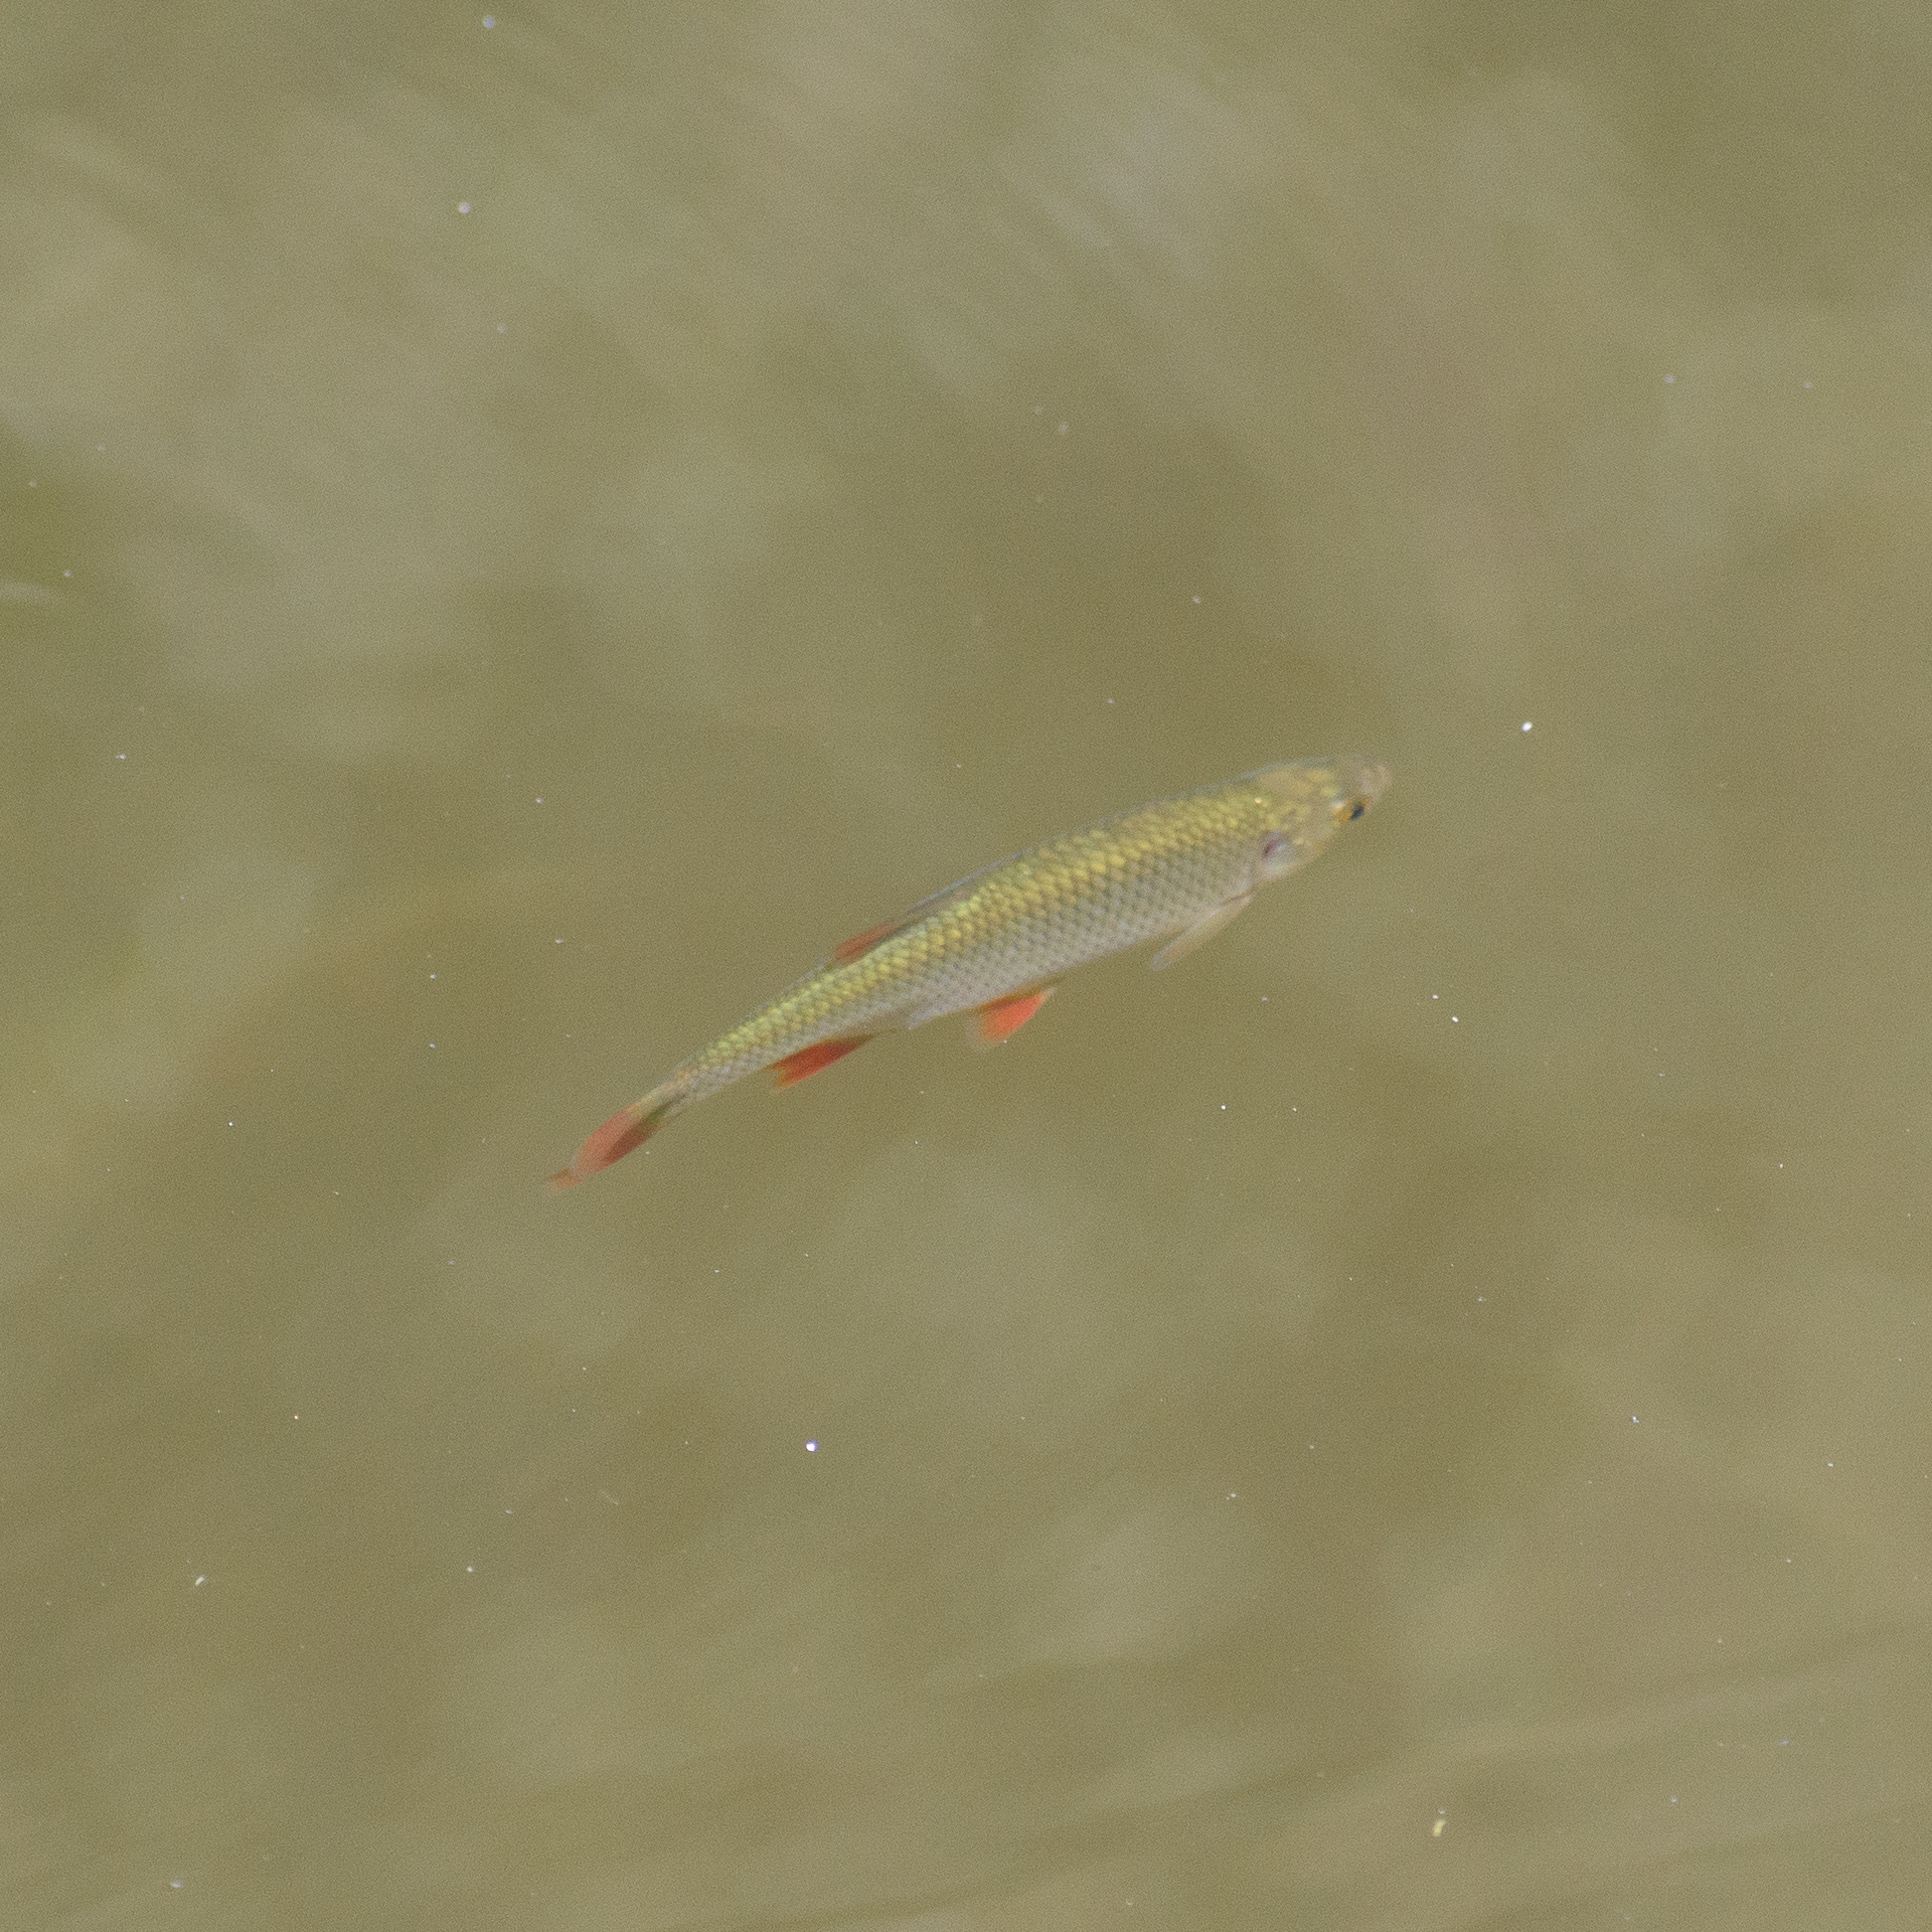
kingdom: Animalia
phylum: Chordata
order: Cypriniformes
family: Cyprinidae
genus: Scardinius
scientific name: Scardinius erythrophthalmus
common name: Rudd
